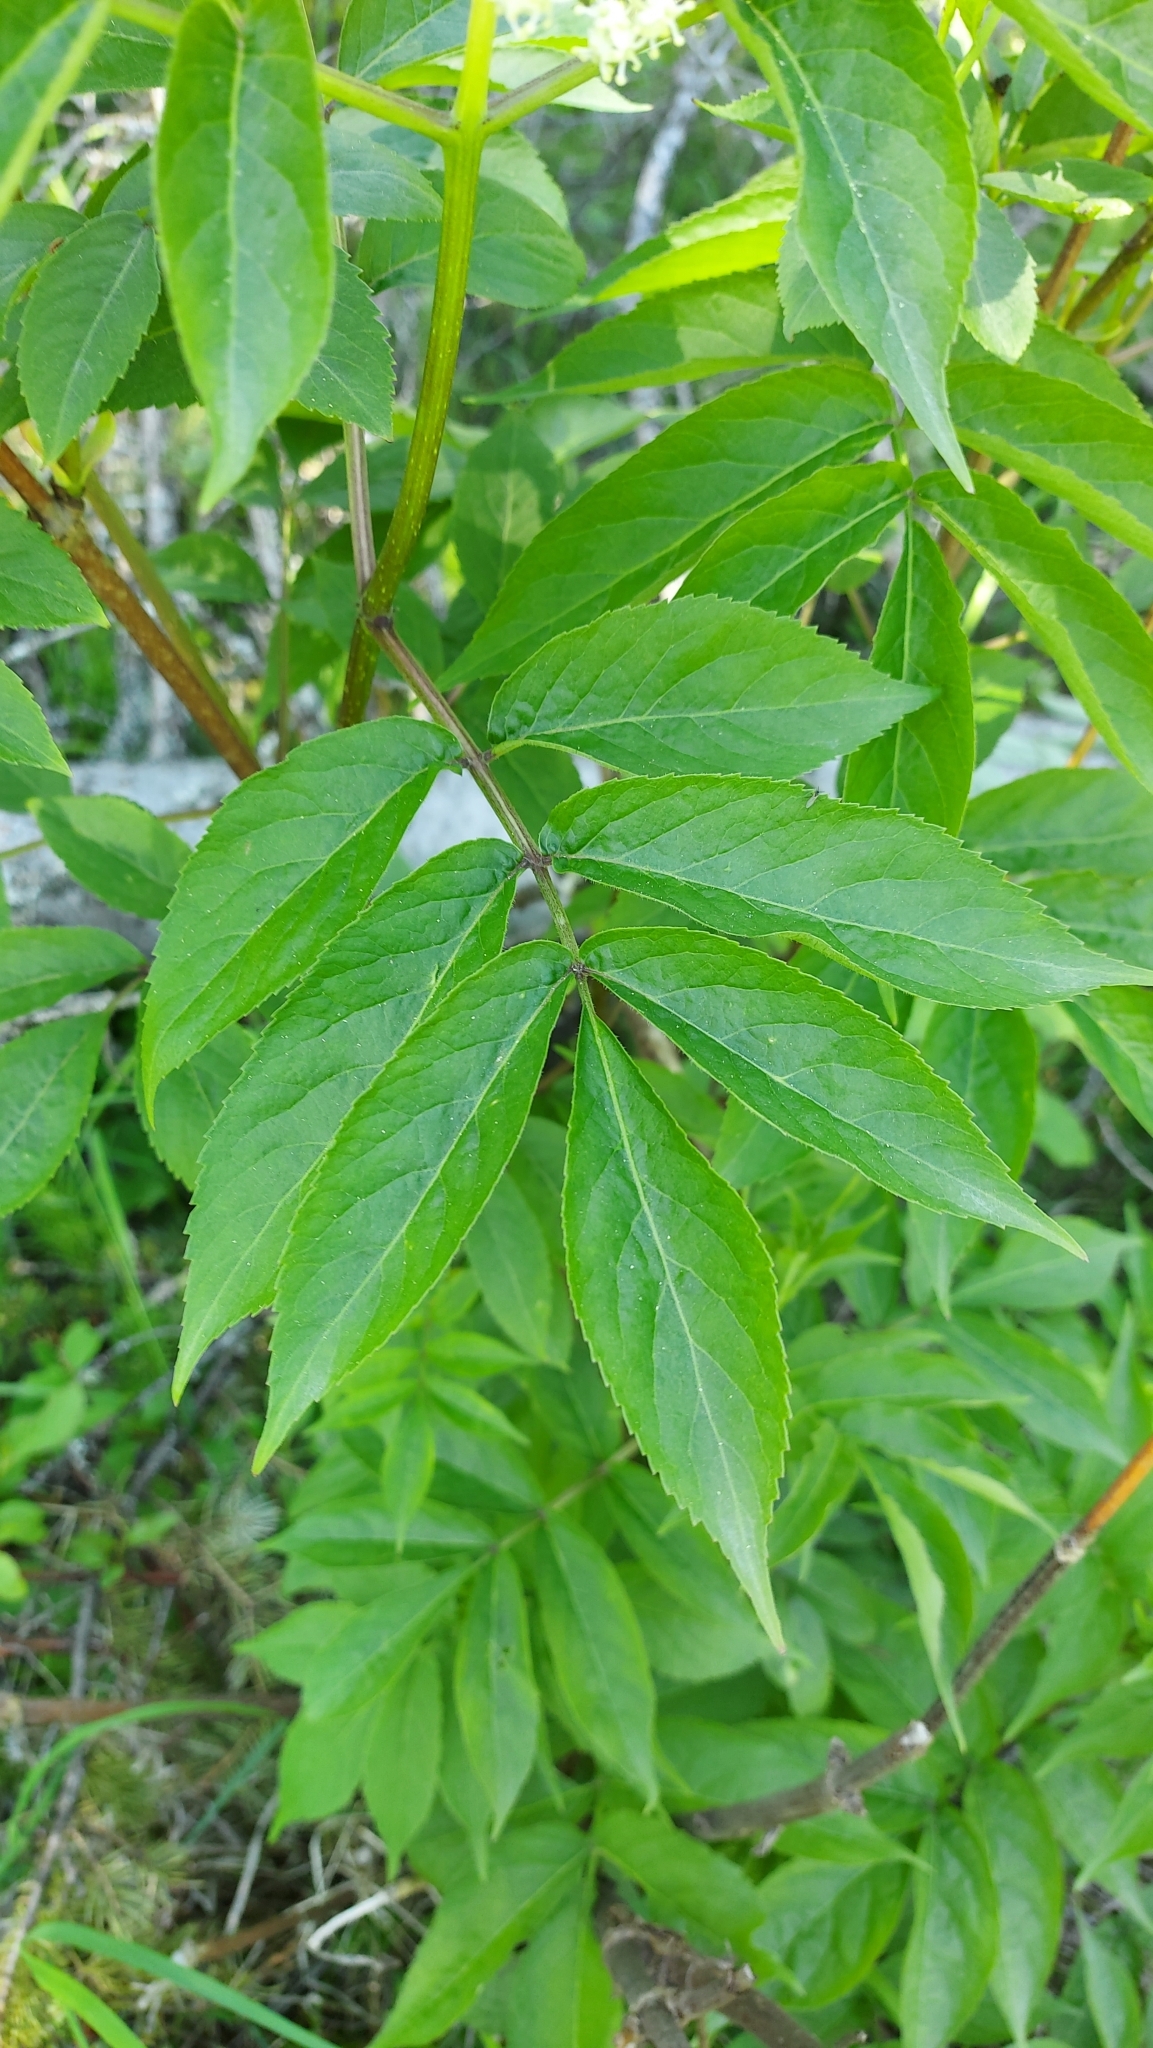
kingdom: Plantae
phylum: Tracheophyta
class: Magnoliopsida
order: Dipsacales
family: Viburnaceae
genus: Sambucus
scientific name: Sambucus racemosa
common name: Red-berried elder
